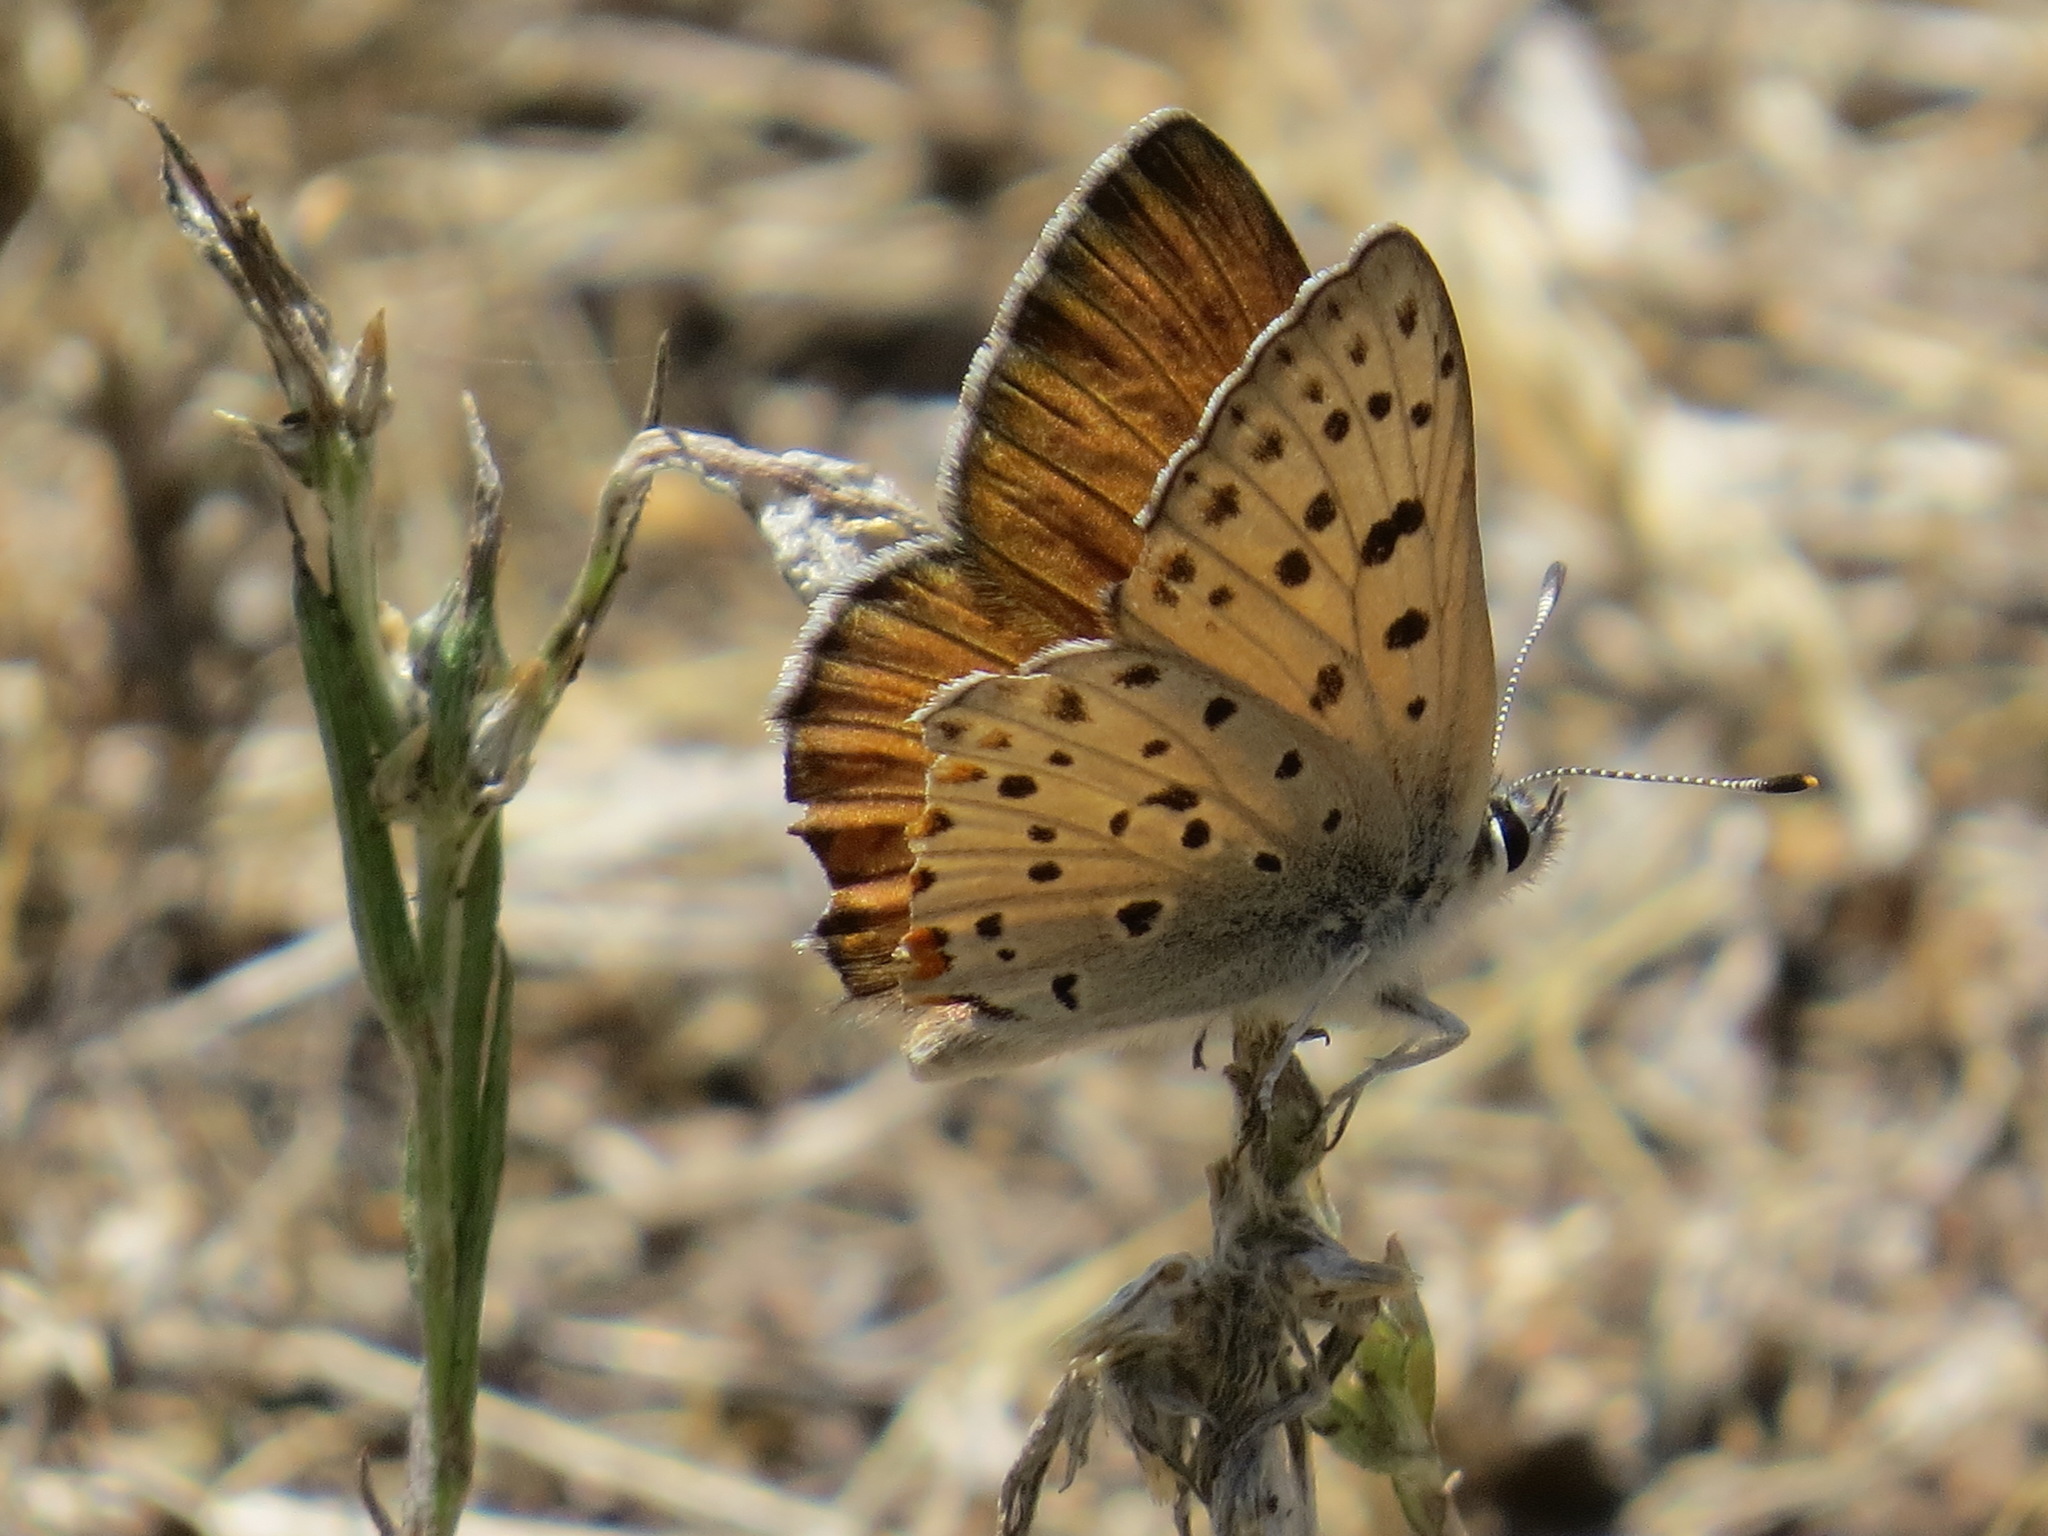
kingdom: Animalia
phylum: Arthropoda
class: Insecta
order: Lepidoptera
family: Lycaenidae
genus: Tharsalea
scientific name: Tharsalea gorgon
